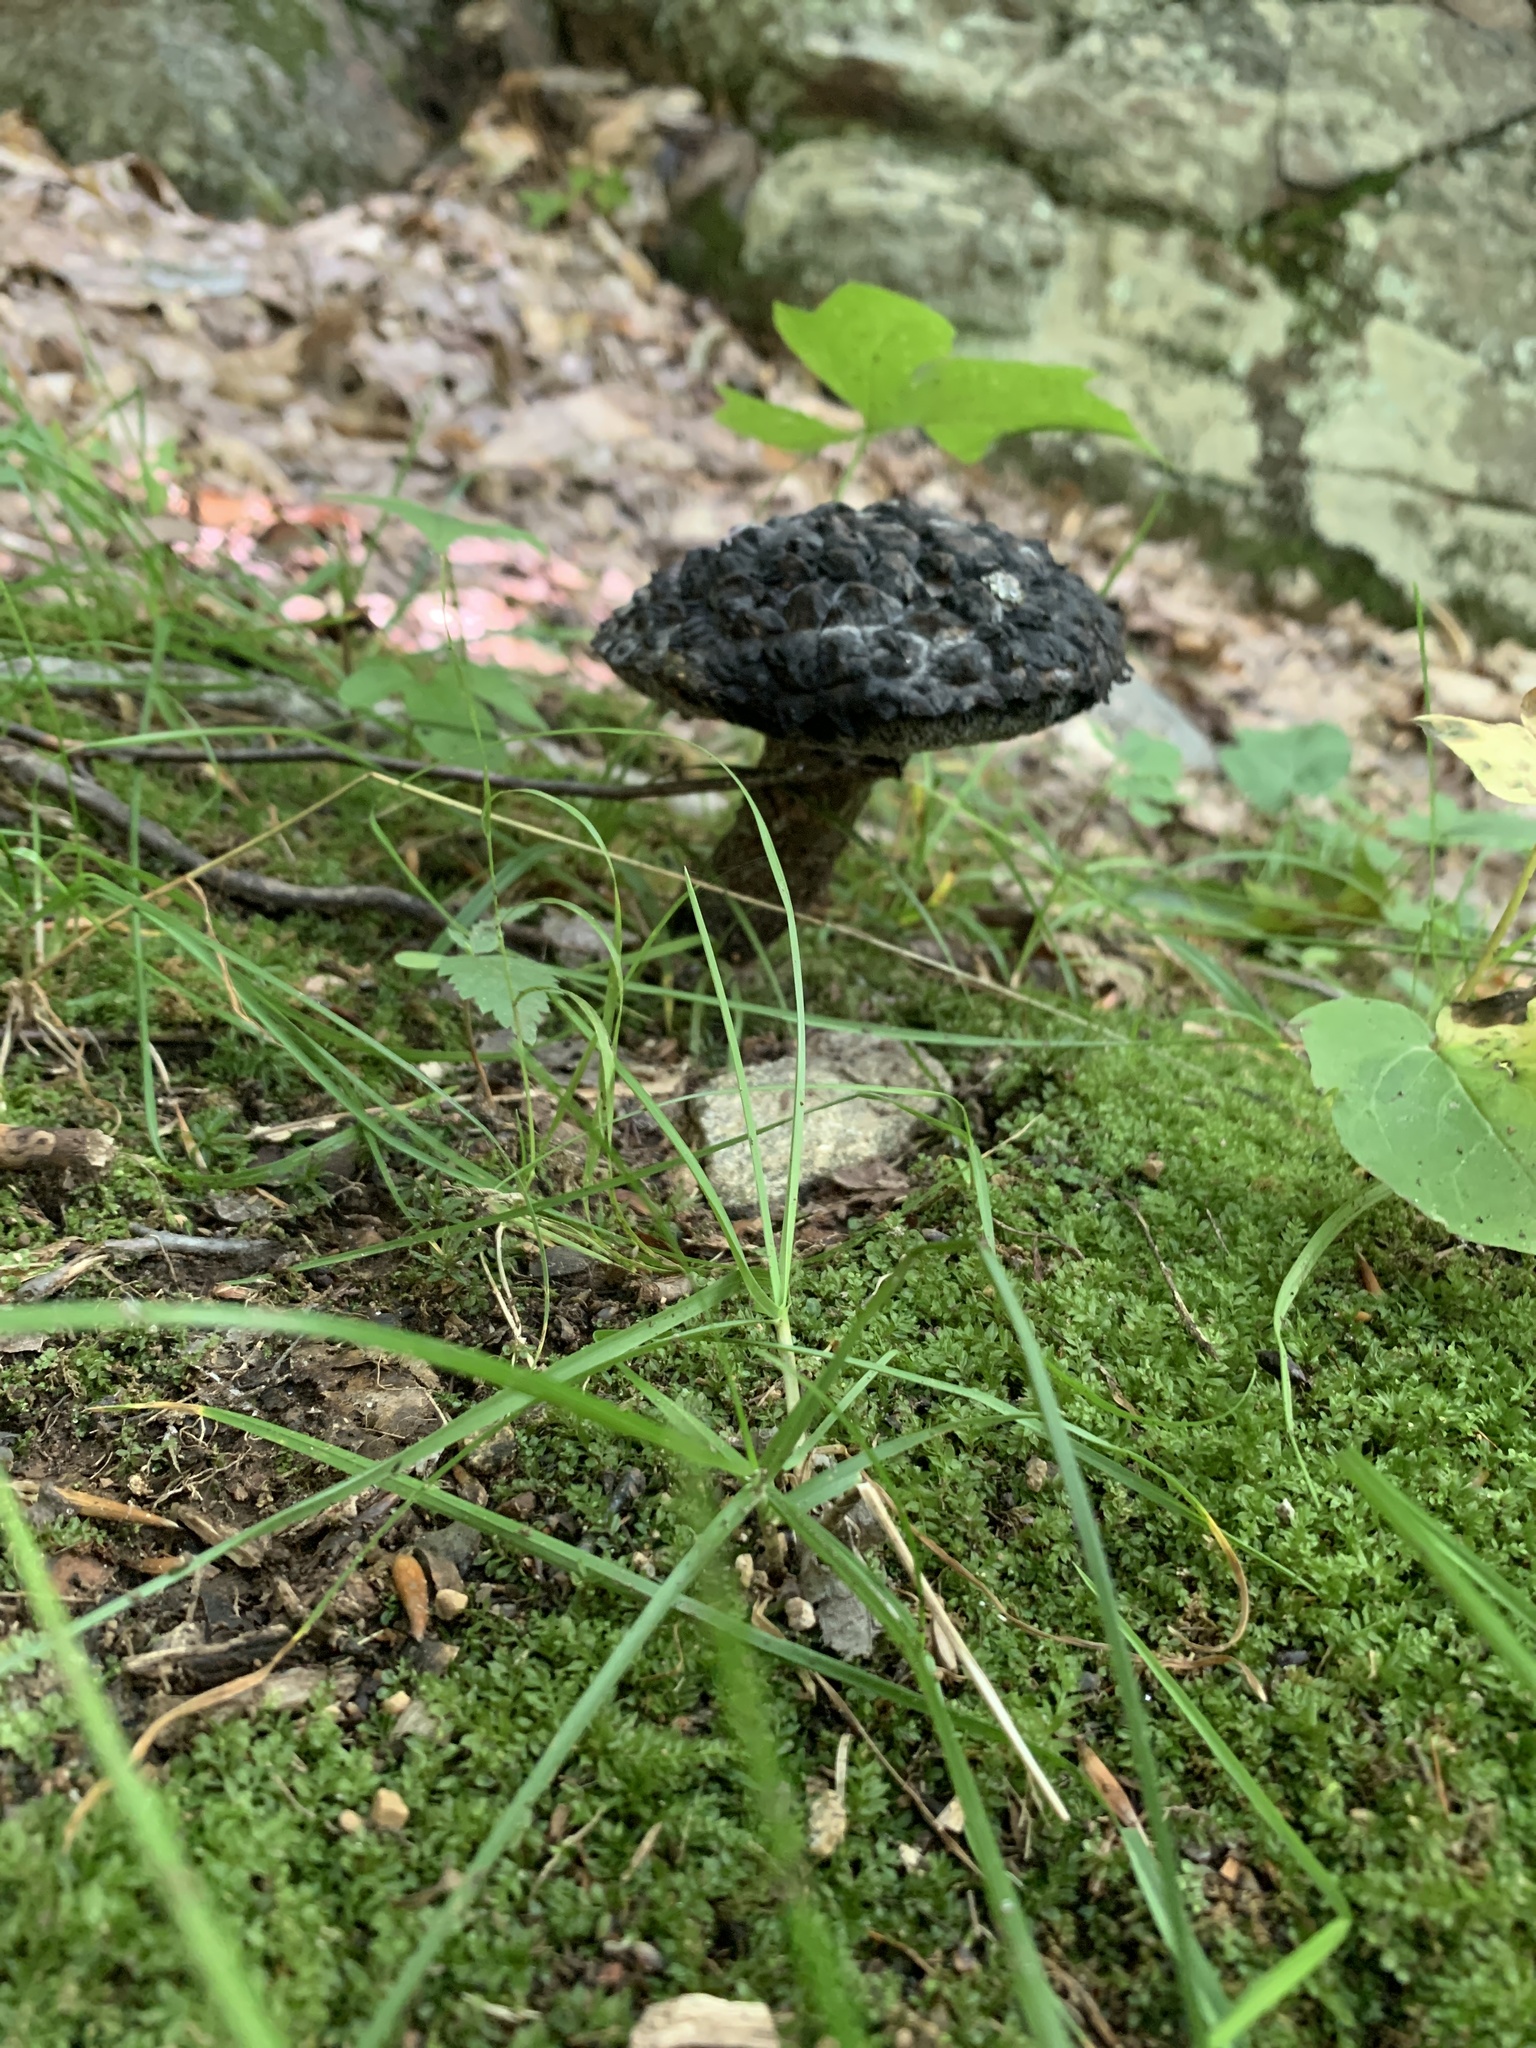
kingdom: Fungi
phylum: Basidiomycota
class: Agaricomycetes
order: Boletales
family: Boletaceae
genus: Strobilomyces
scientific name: Strobilomyces strobilaceus
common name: Old man of the woods
